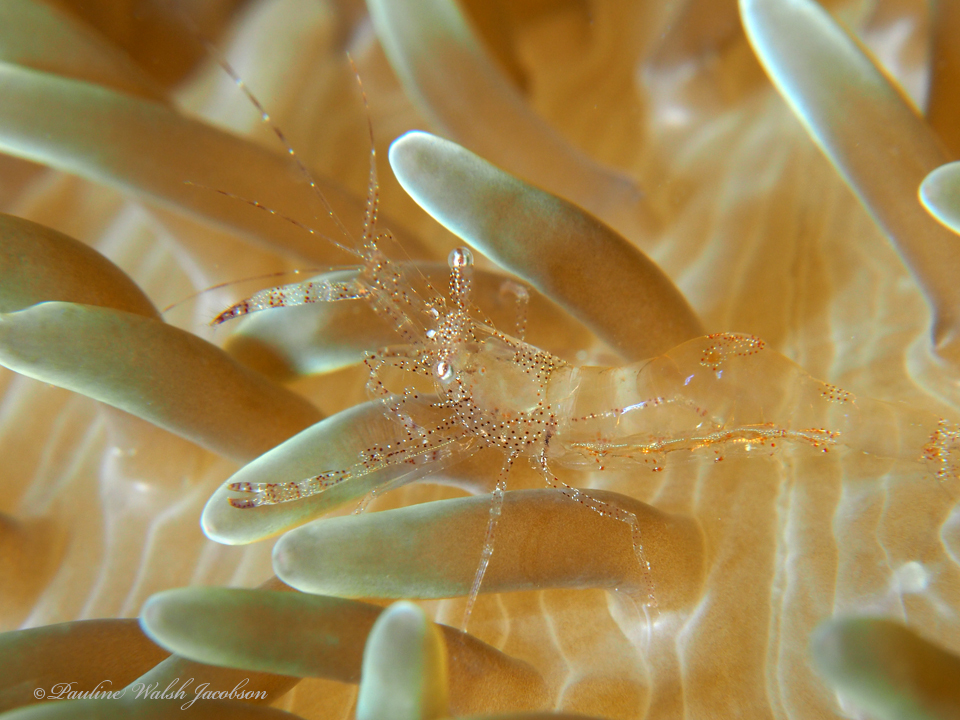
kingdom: Animalia
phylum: Arthropoda
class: Malacostraca
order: Decapoda
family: Palaemonidae
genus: Periclimenes
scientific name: Periclimenes rathbunae
